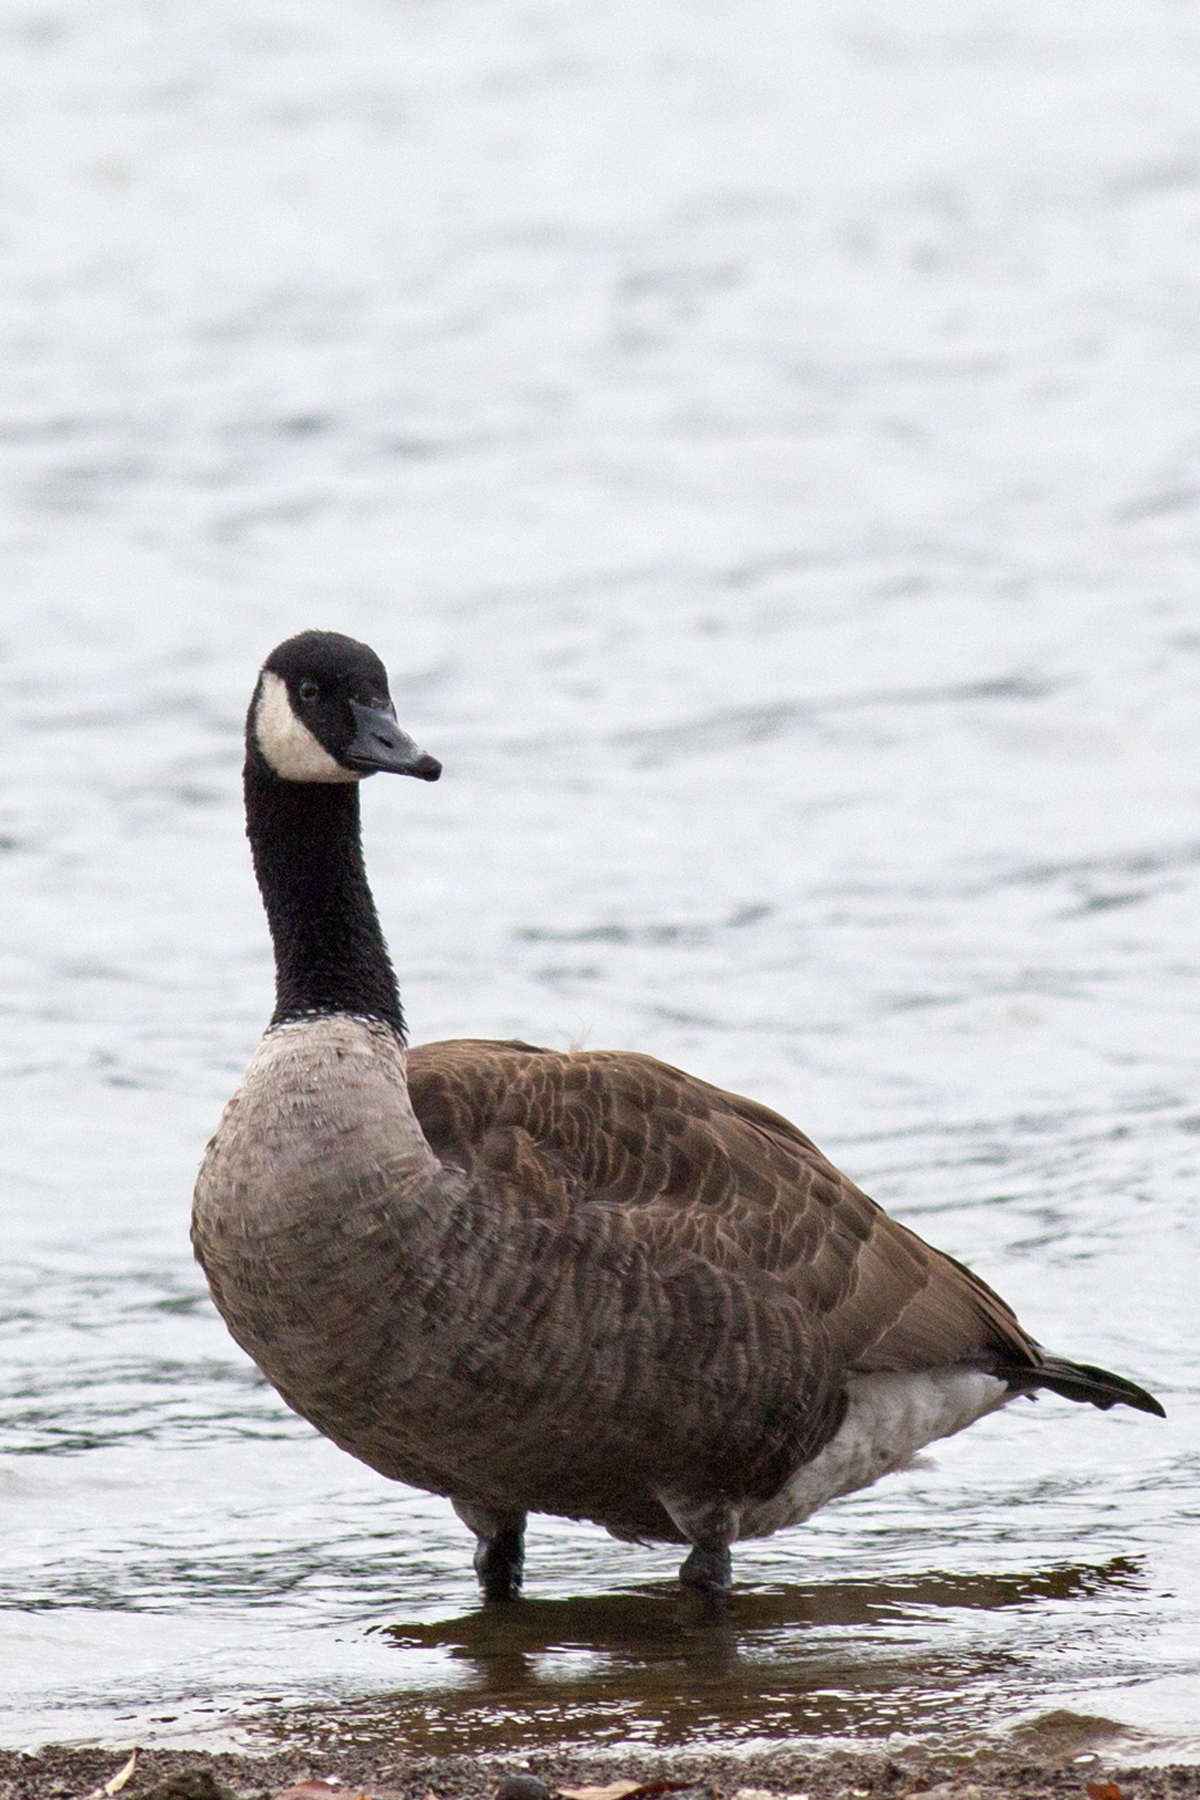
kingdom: Animalia
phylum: Chordata
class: Aves
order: Anseriformes
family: Anatidae
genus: Branta
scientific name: Branta canadensis
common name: Canada goose
